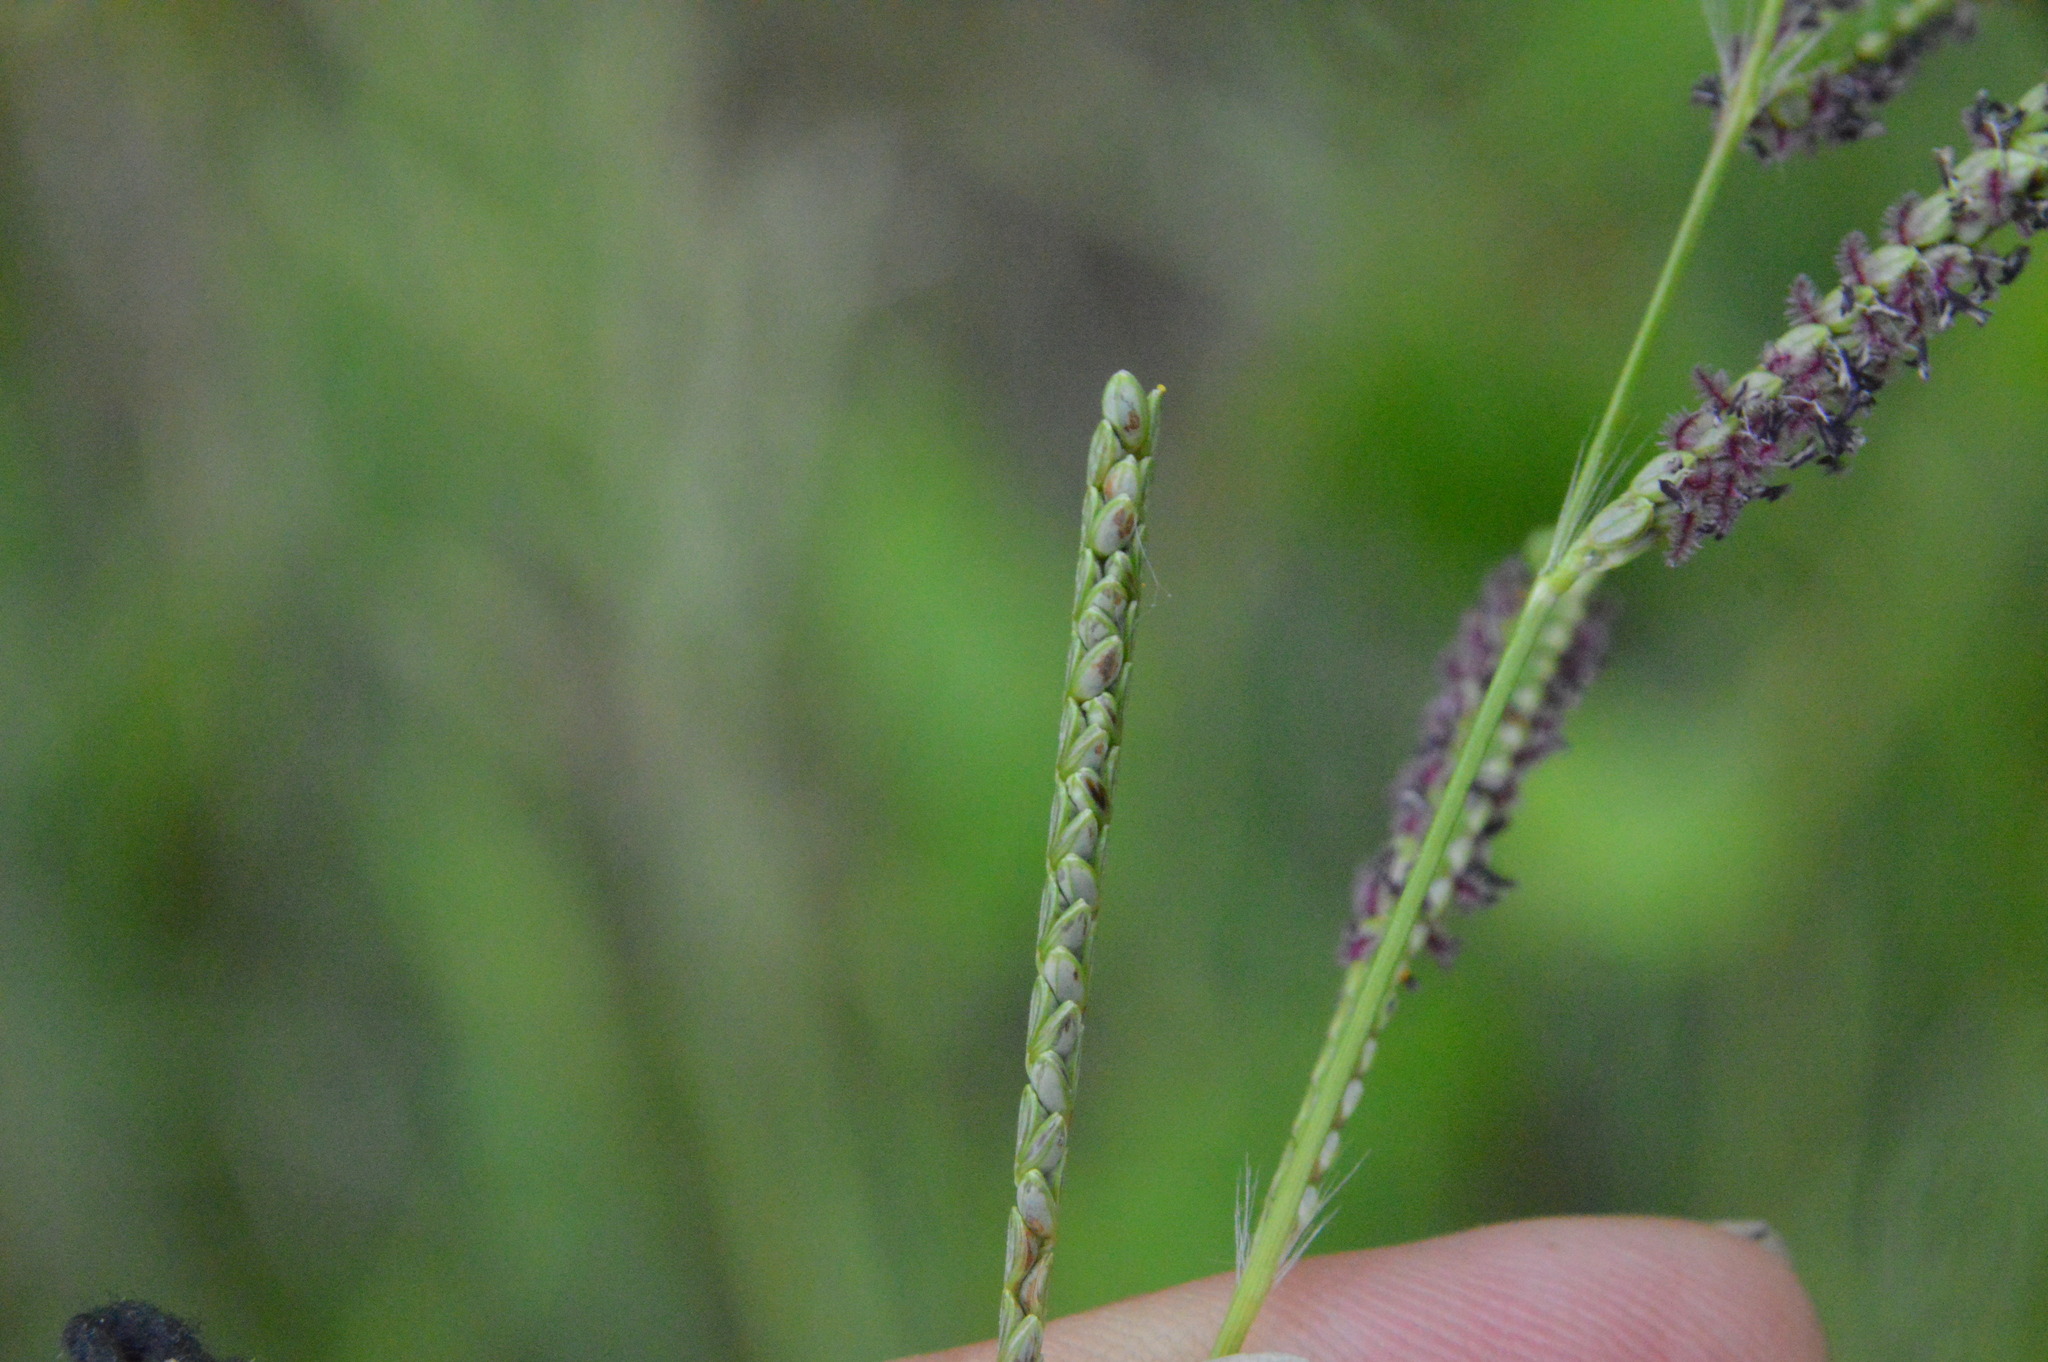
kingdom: Plantae
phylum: Tracheophyta
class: Liliopsida
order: Poales
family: Poaceae
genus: Paspalum
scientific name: Paspalum plicatulum
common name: Top paspalum
